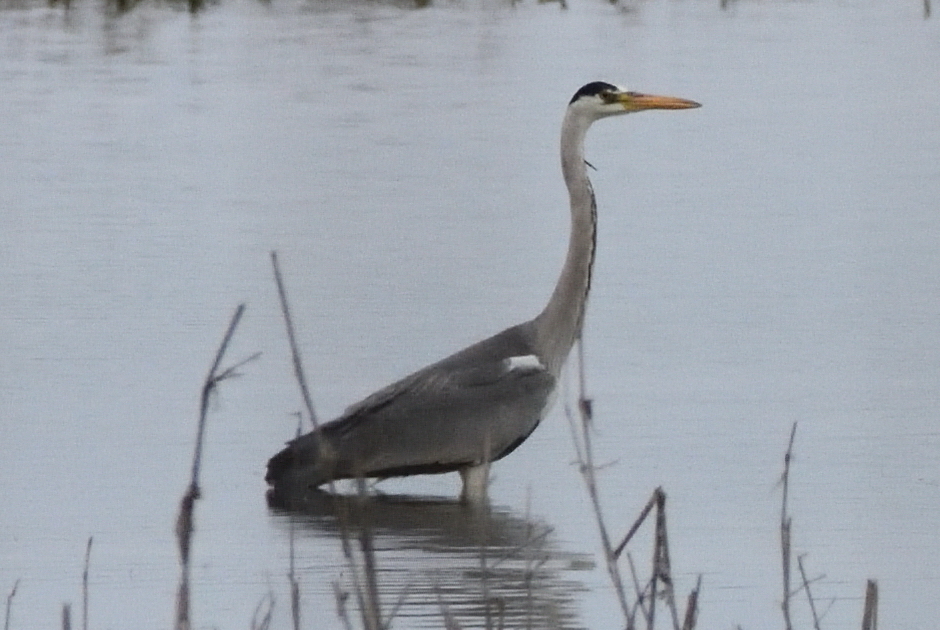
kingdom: Animalia
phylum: Chordata
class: Aves
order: Pelecaniformes
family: Ardeidae
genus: Ardea
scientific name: Ardea cinerea
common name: Grey heron
